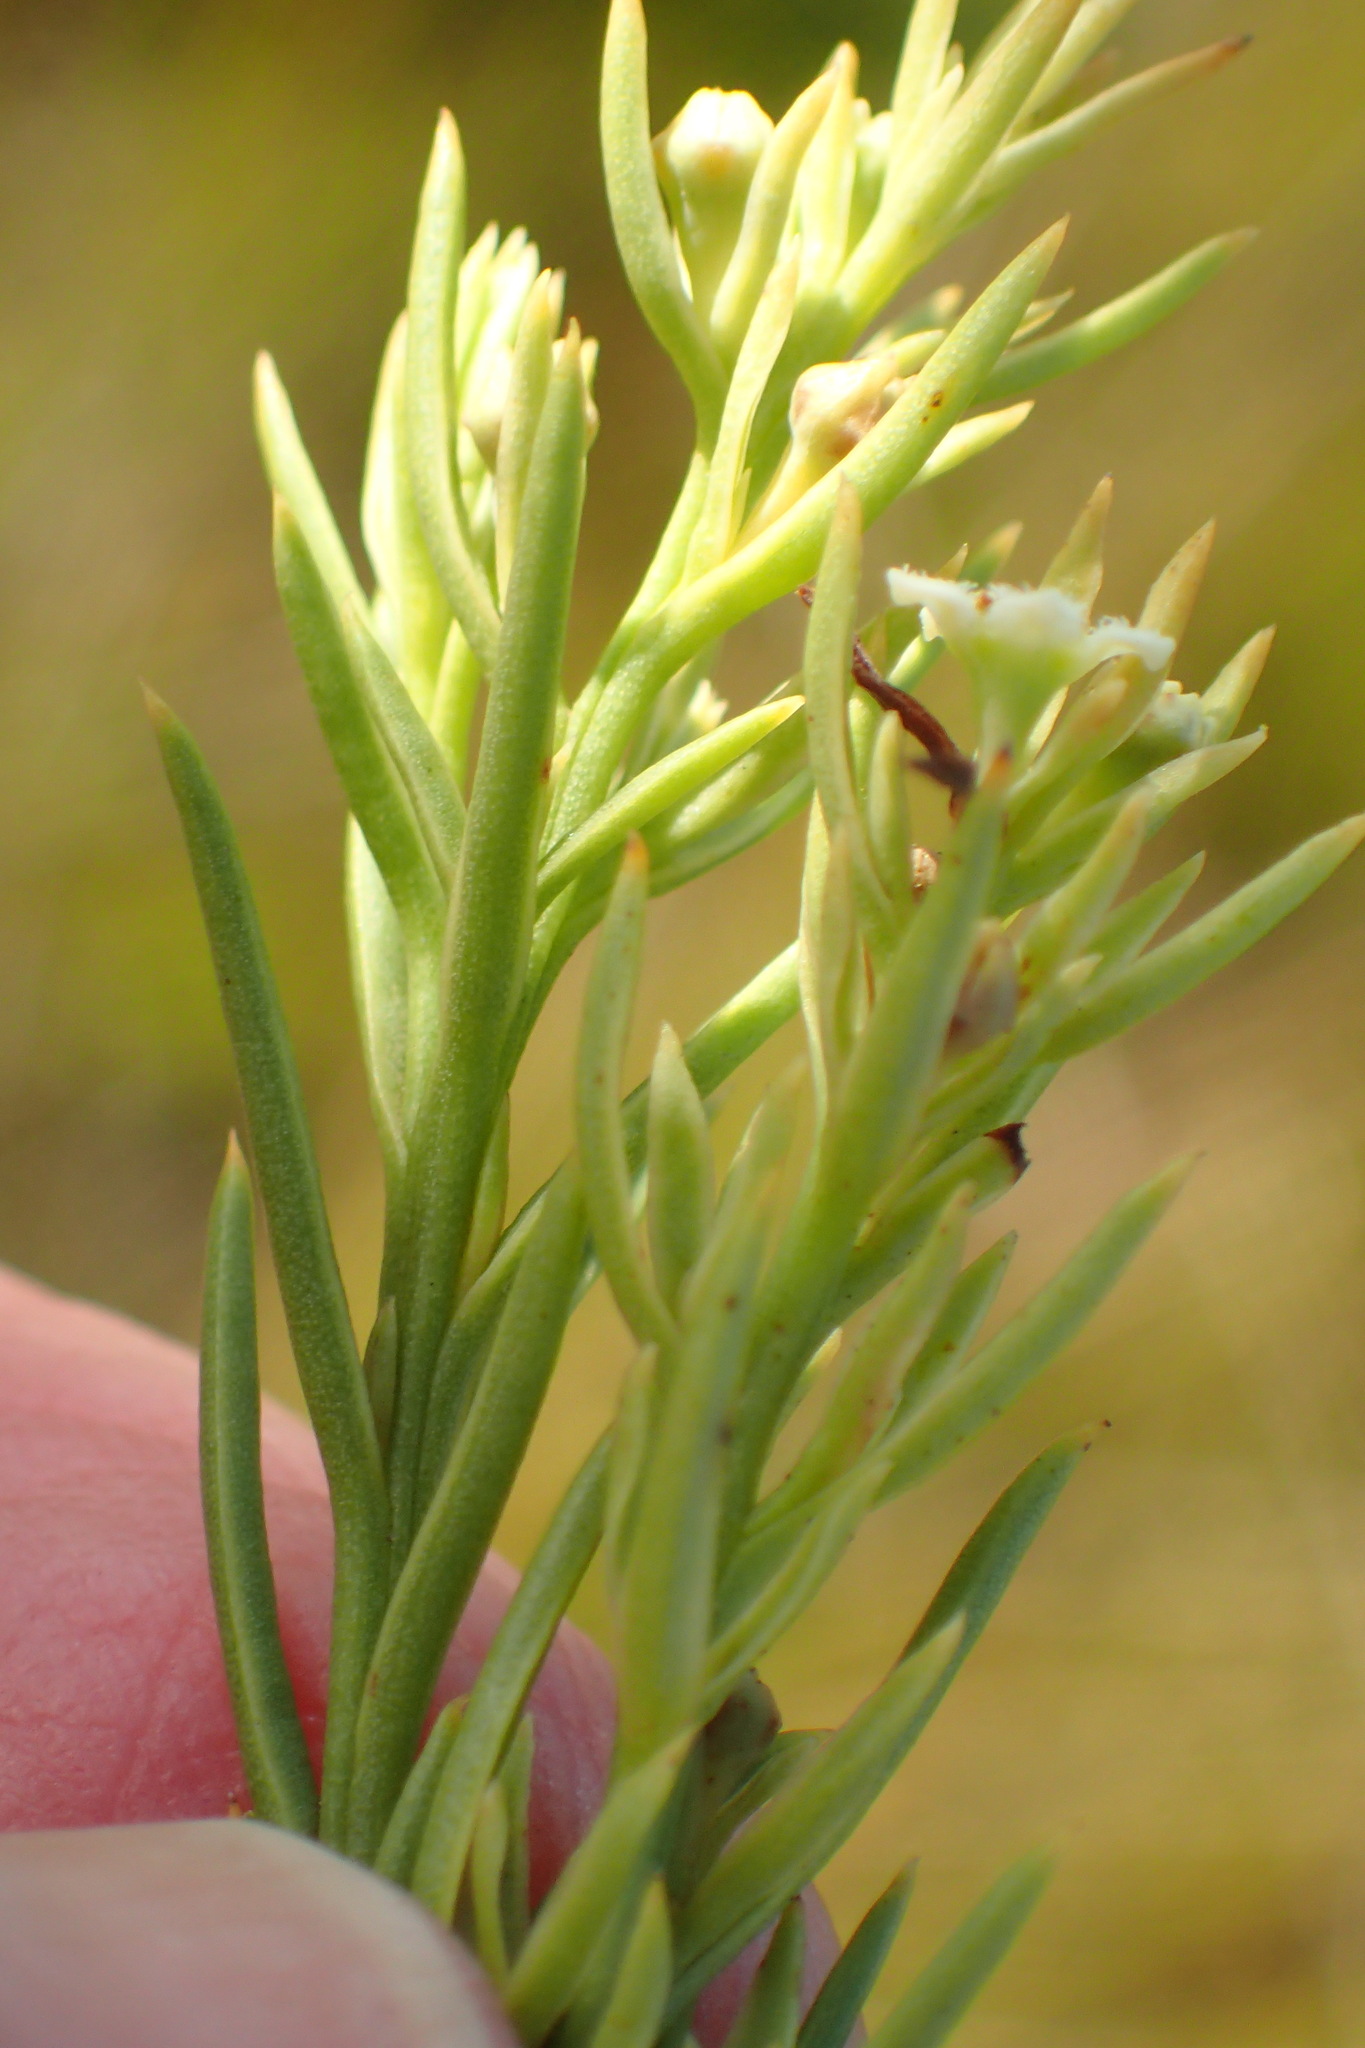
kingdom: Plantae
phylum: Tracheophyta
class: Magnoliopsida
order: Santalales
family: Thesiaceae
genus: Thesium
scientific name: Thesium foliosum
